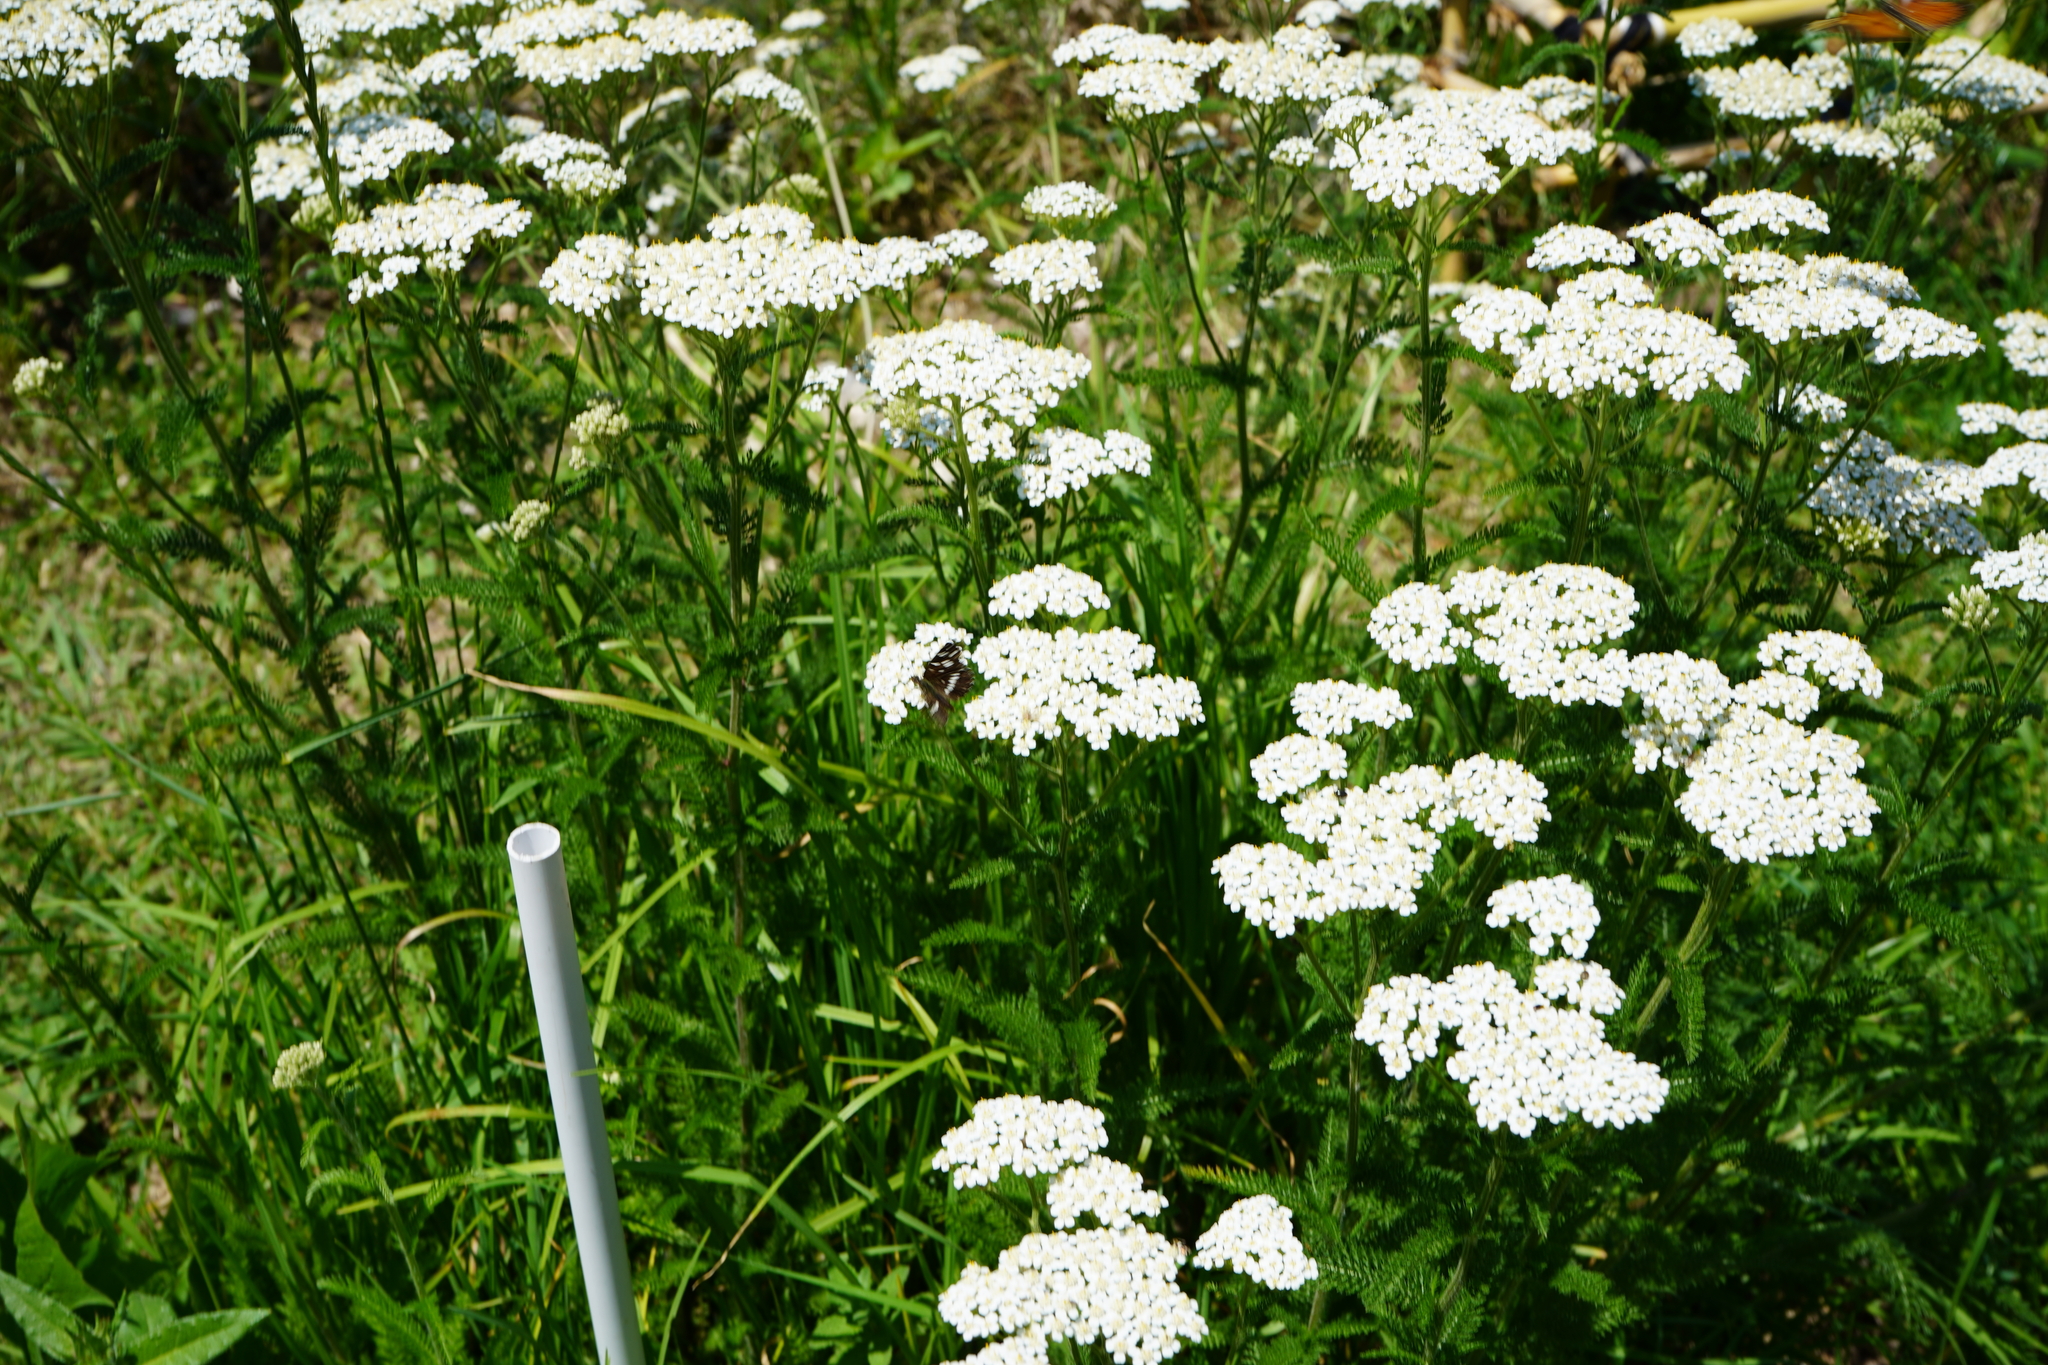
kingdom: Animalia
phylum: Arthropoda
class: Insecta
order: Lepidoptera
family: Nymphalidae
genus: Ortilia
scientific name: Ortilia ithra
